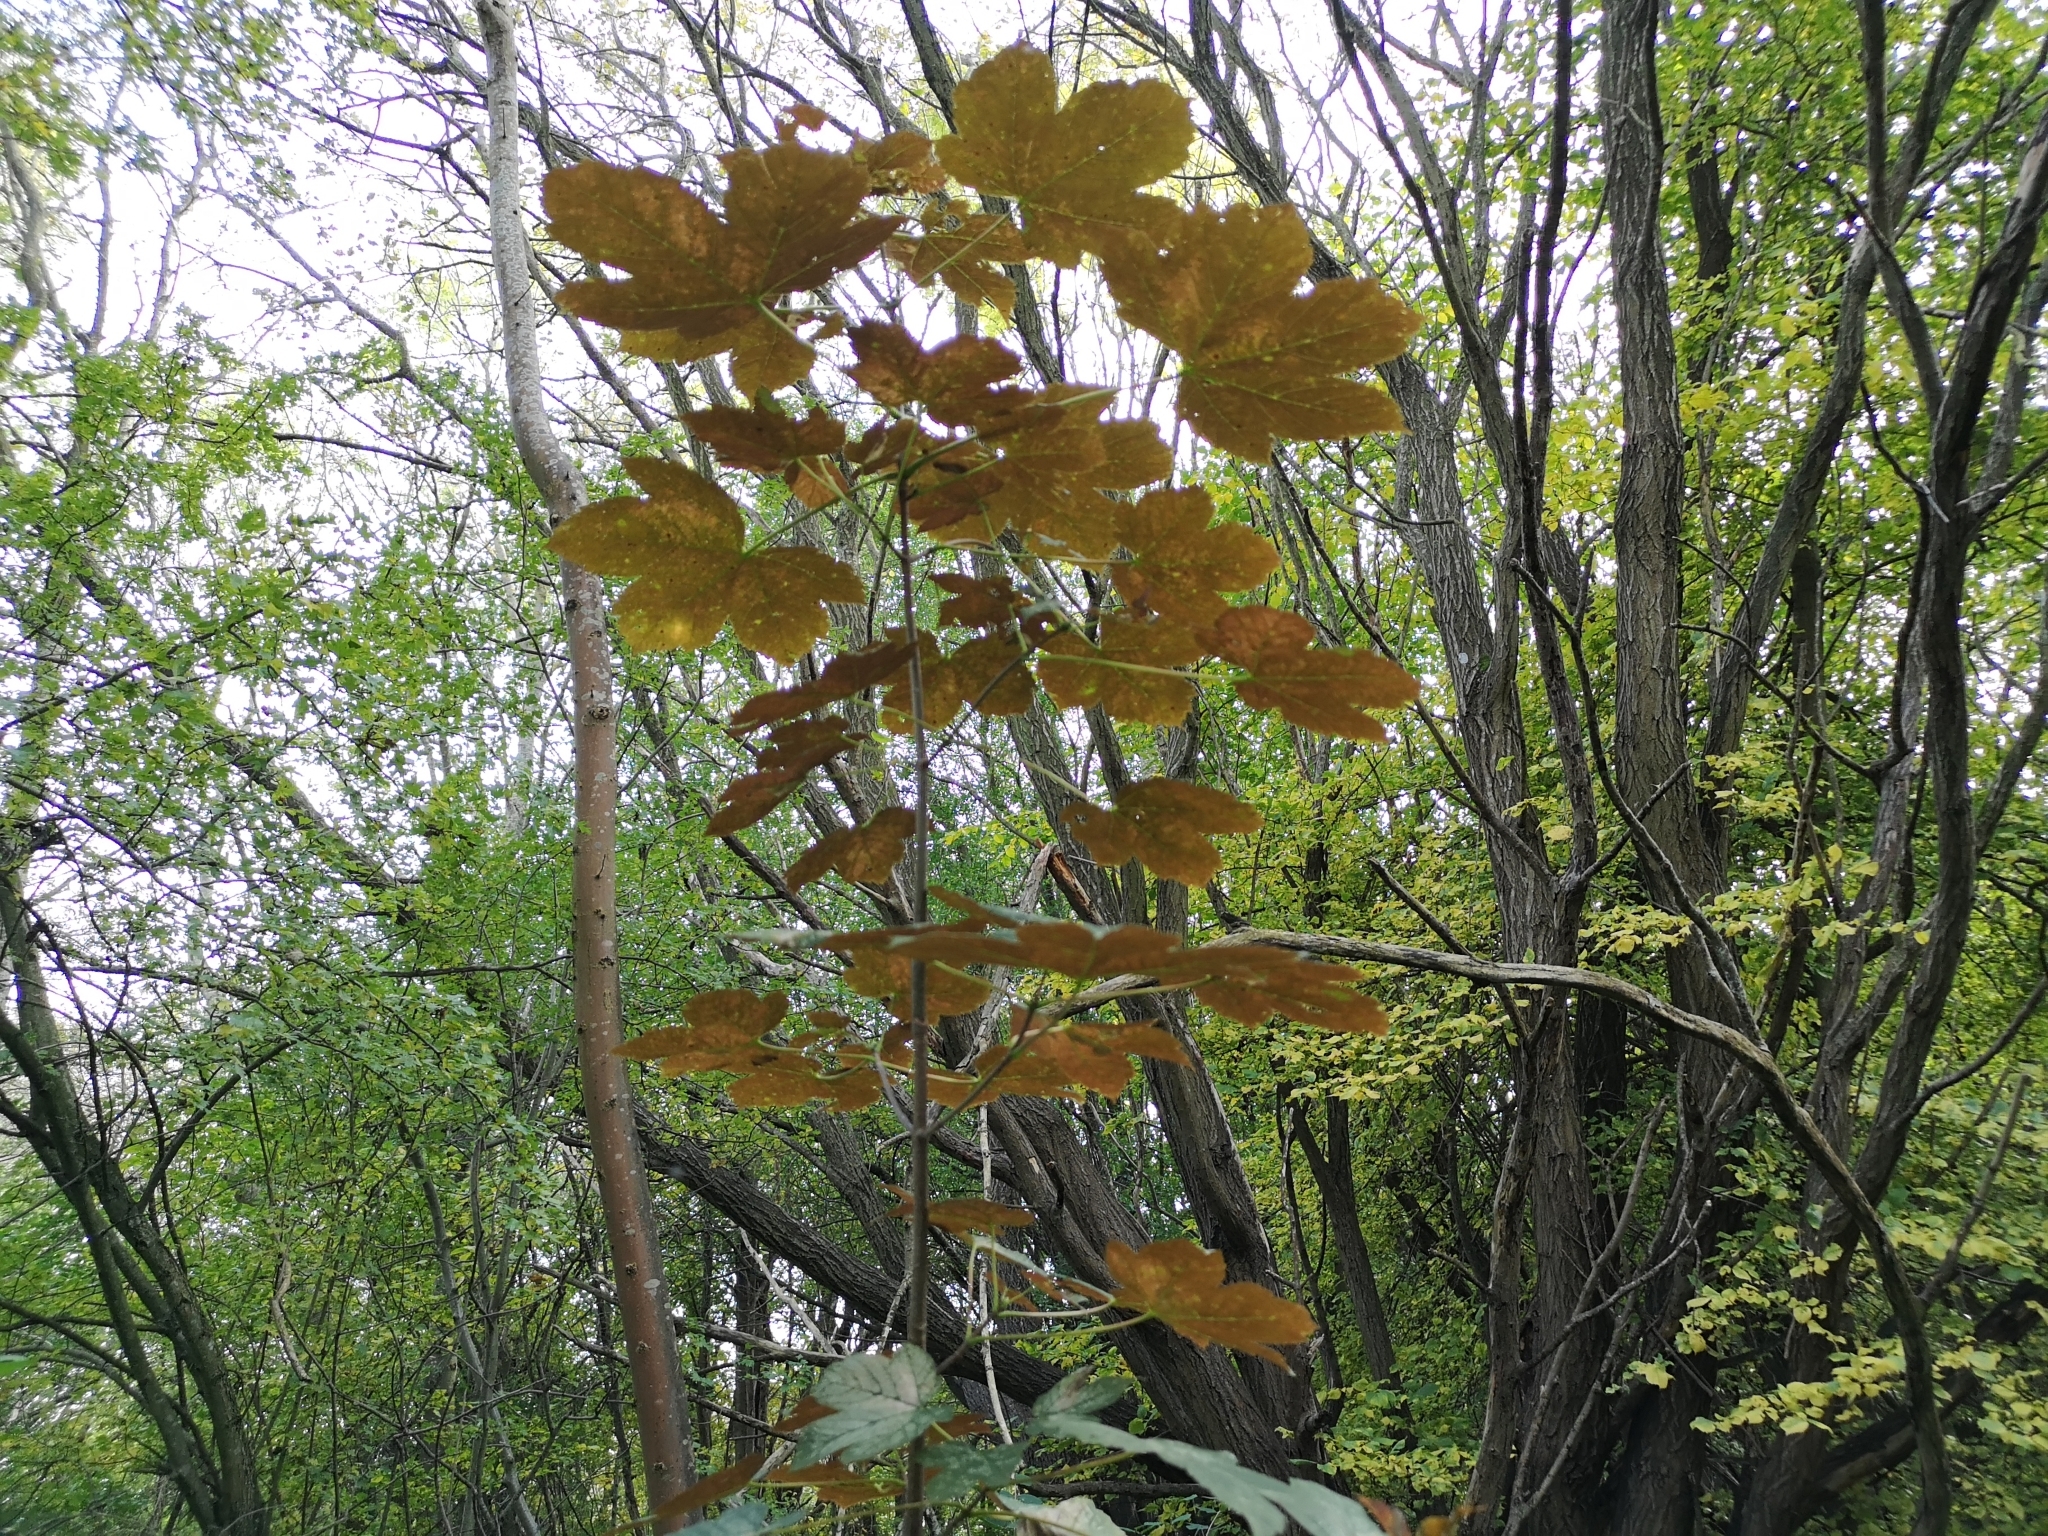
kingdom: Plantae
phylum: Tracheophyta
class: Magnoliopsida
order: Sapindales
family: Sapindaceae
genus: Acer
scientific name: Acer pseudoplatanus
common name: Sycamore
